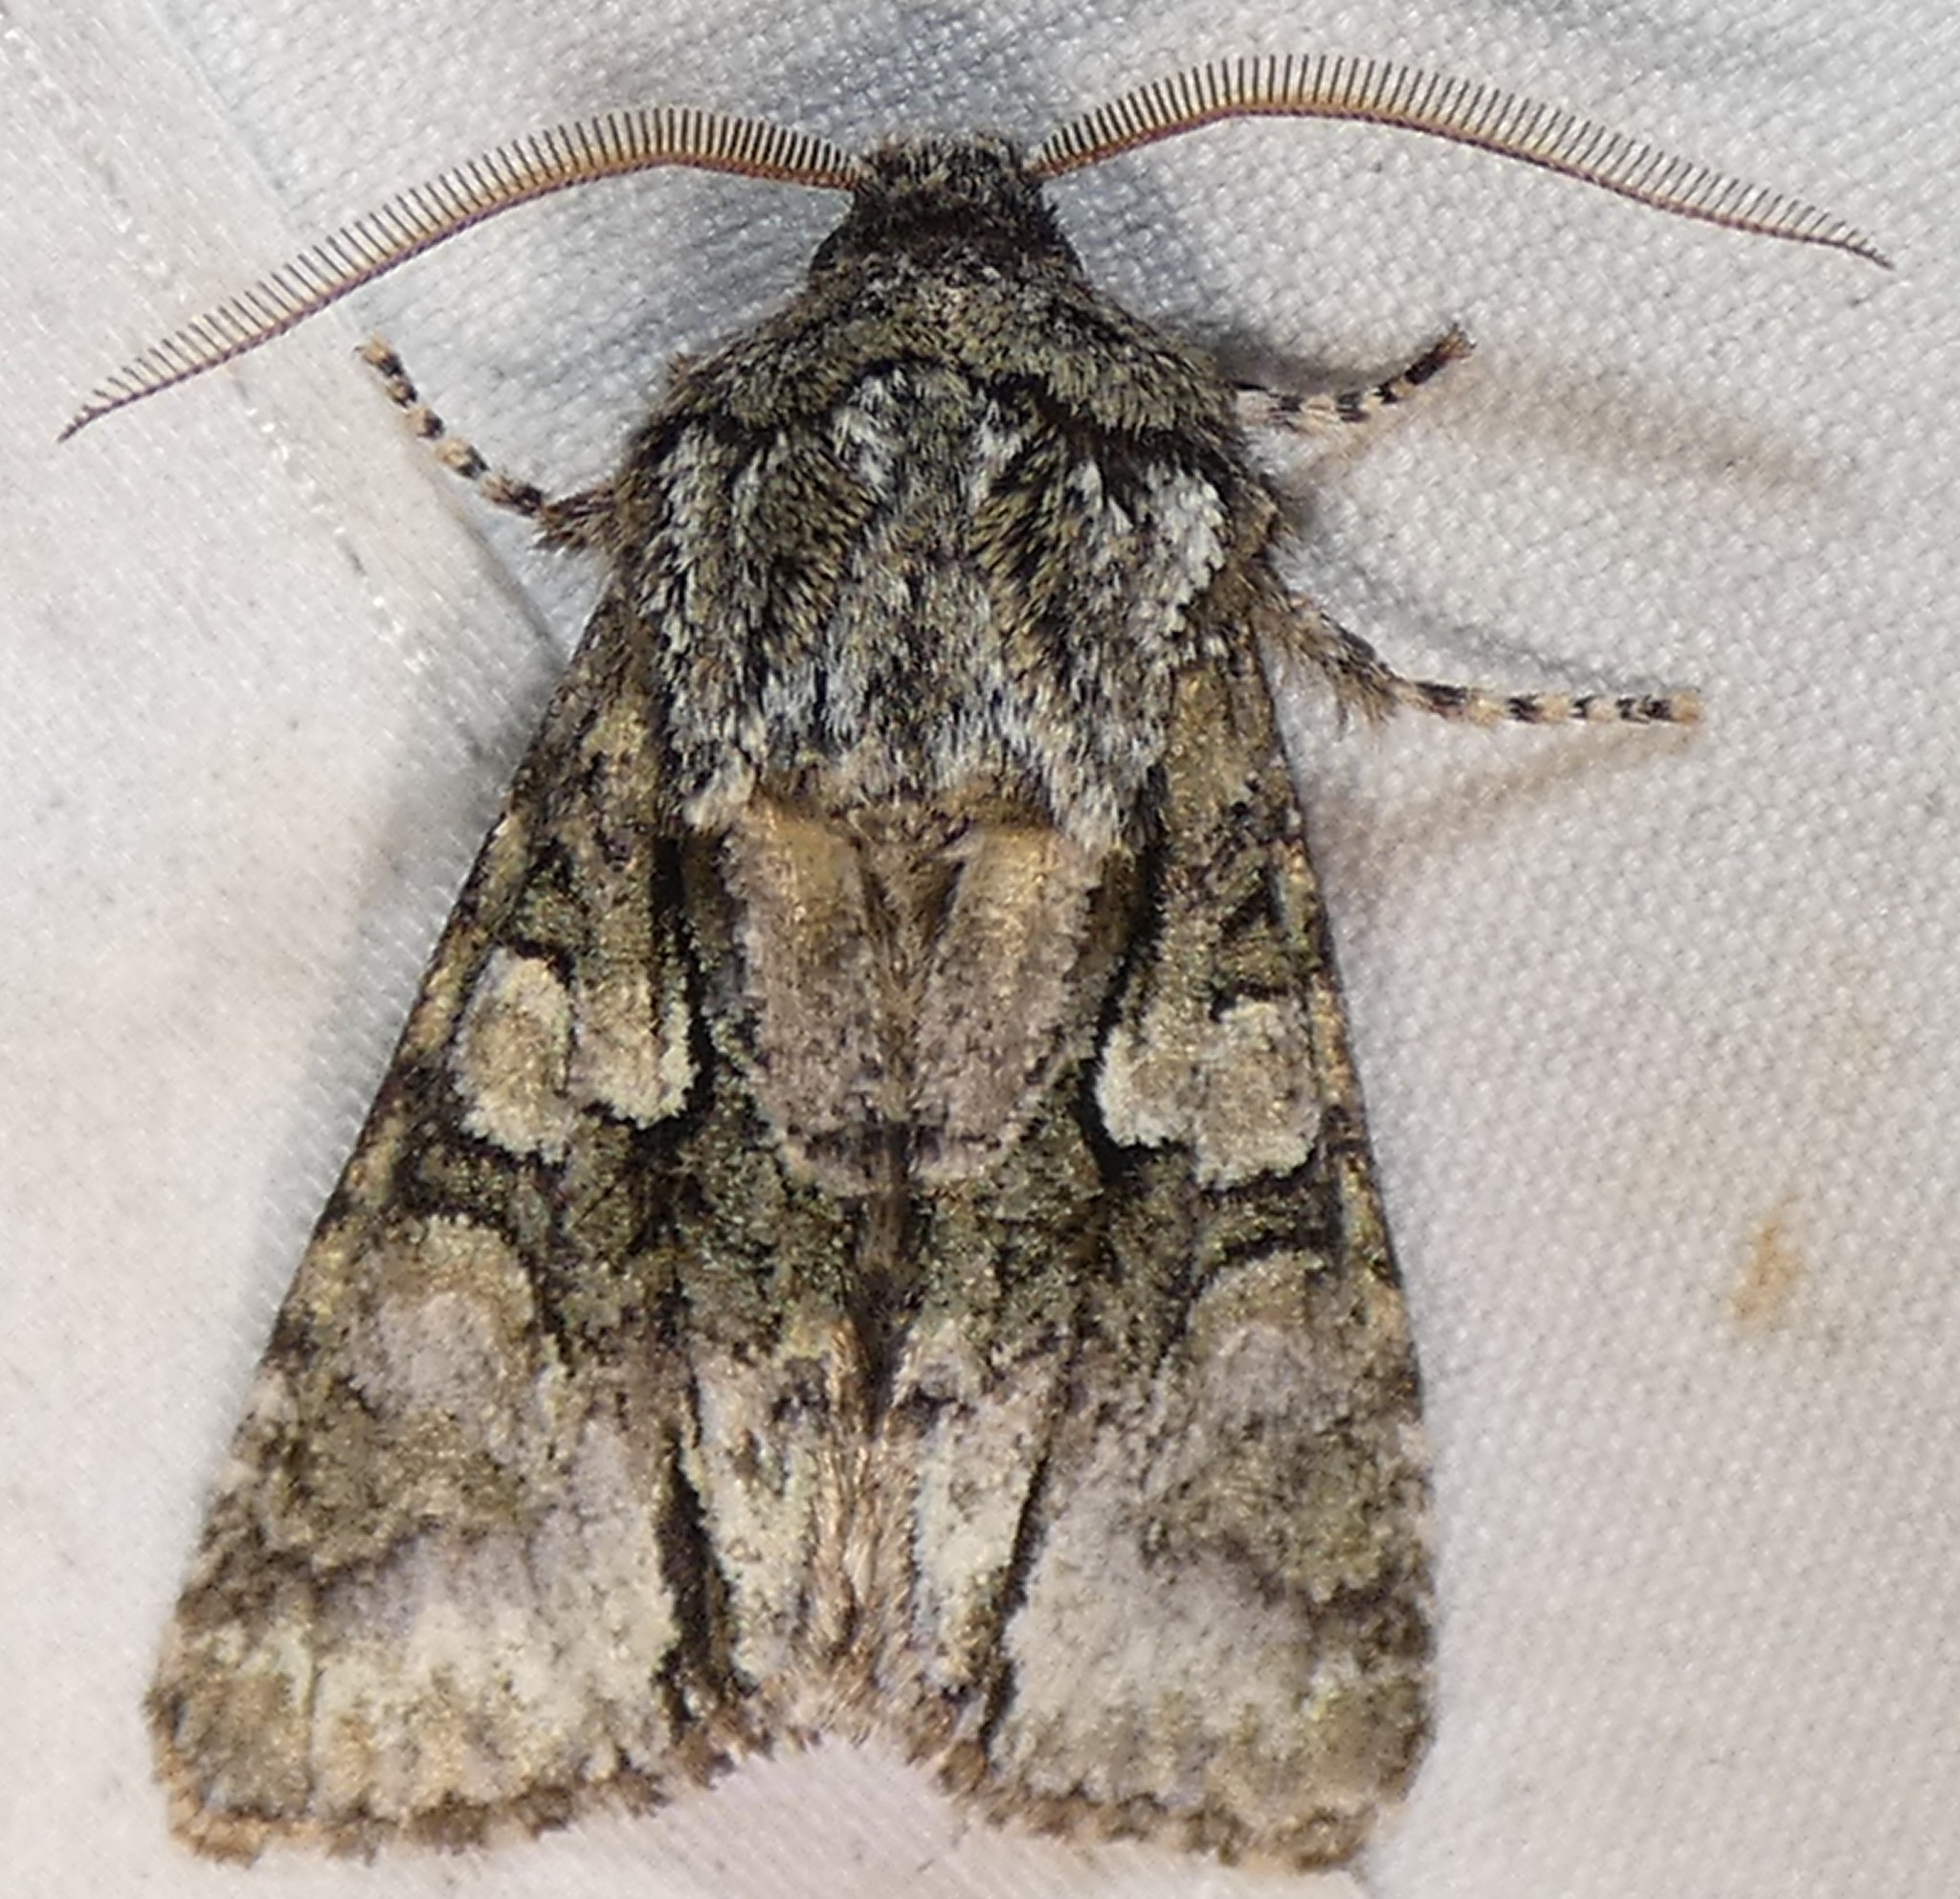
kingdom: Animalia
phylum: Arthropoda
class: Insecta
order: Lepidoptera
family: Noctuidae
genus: Psaphida
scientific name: Psaphida resumens
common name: Figure-eight sallow
